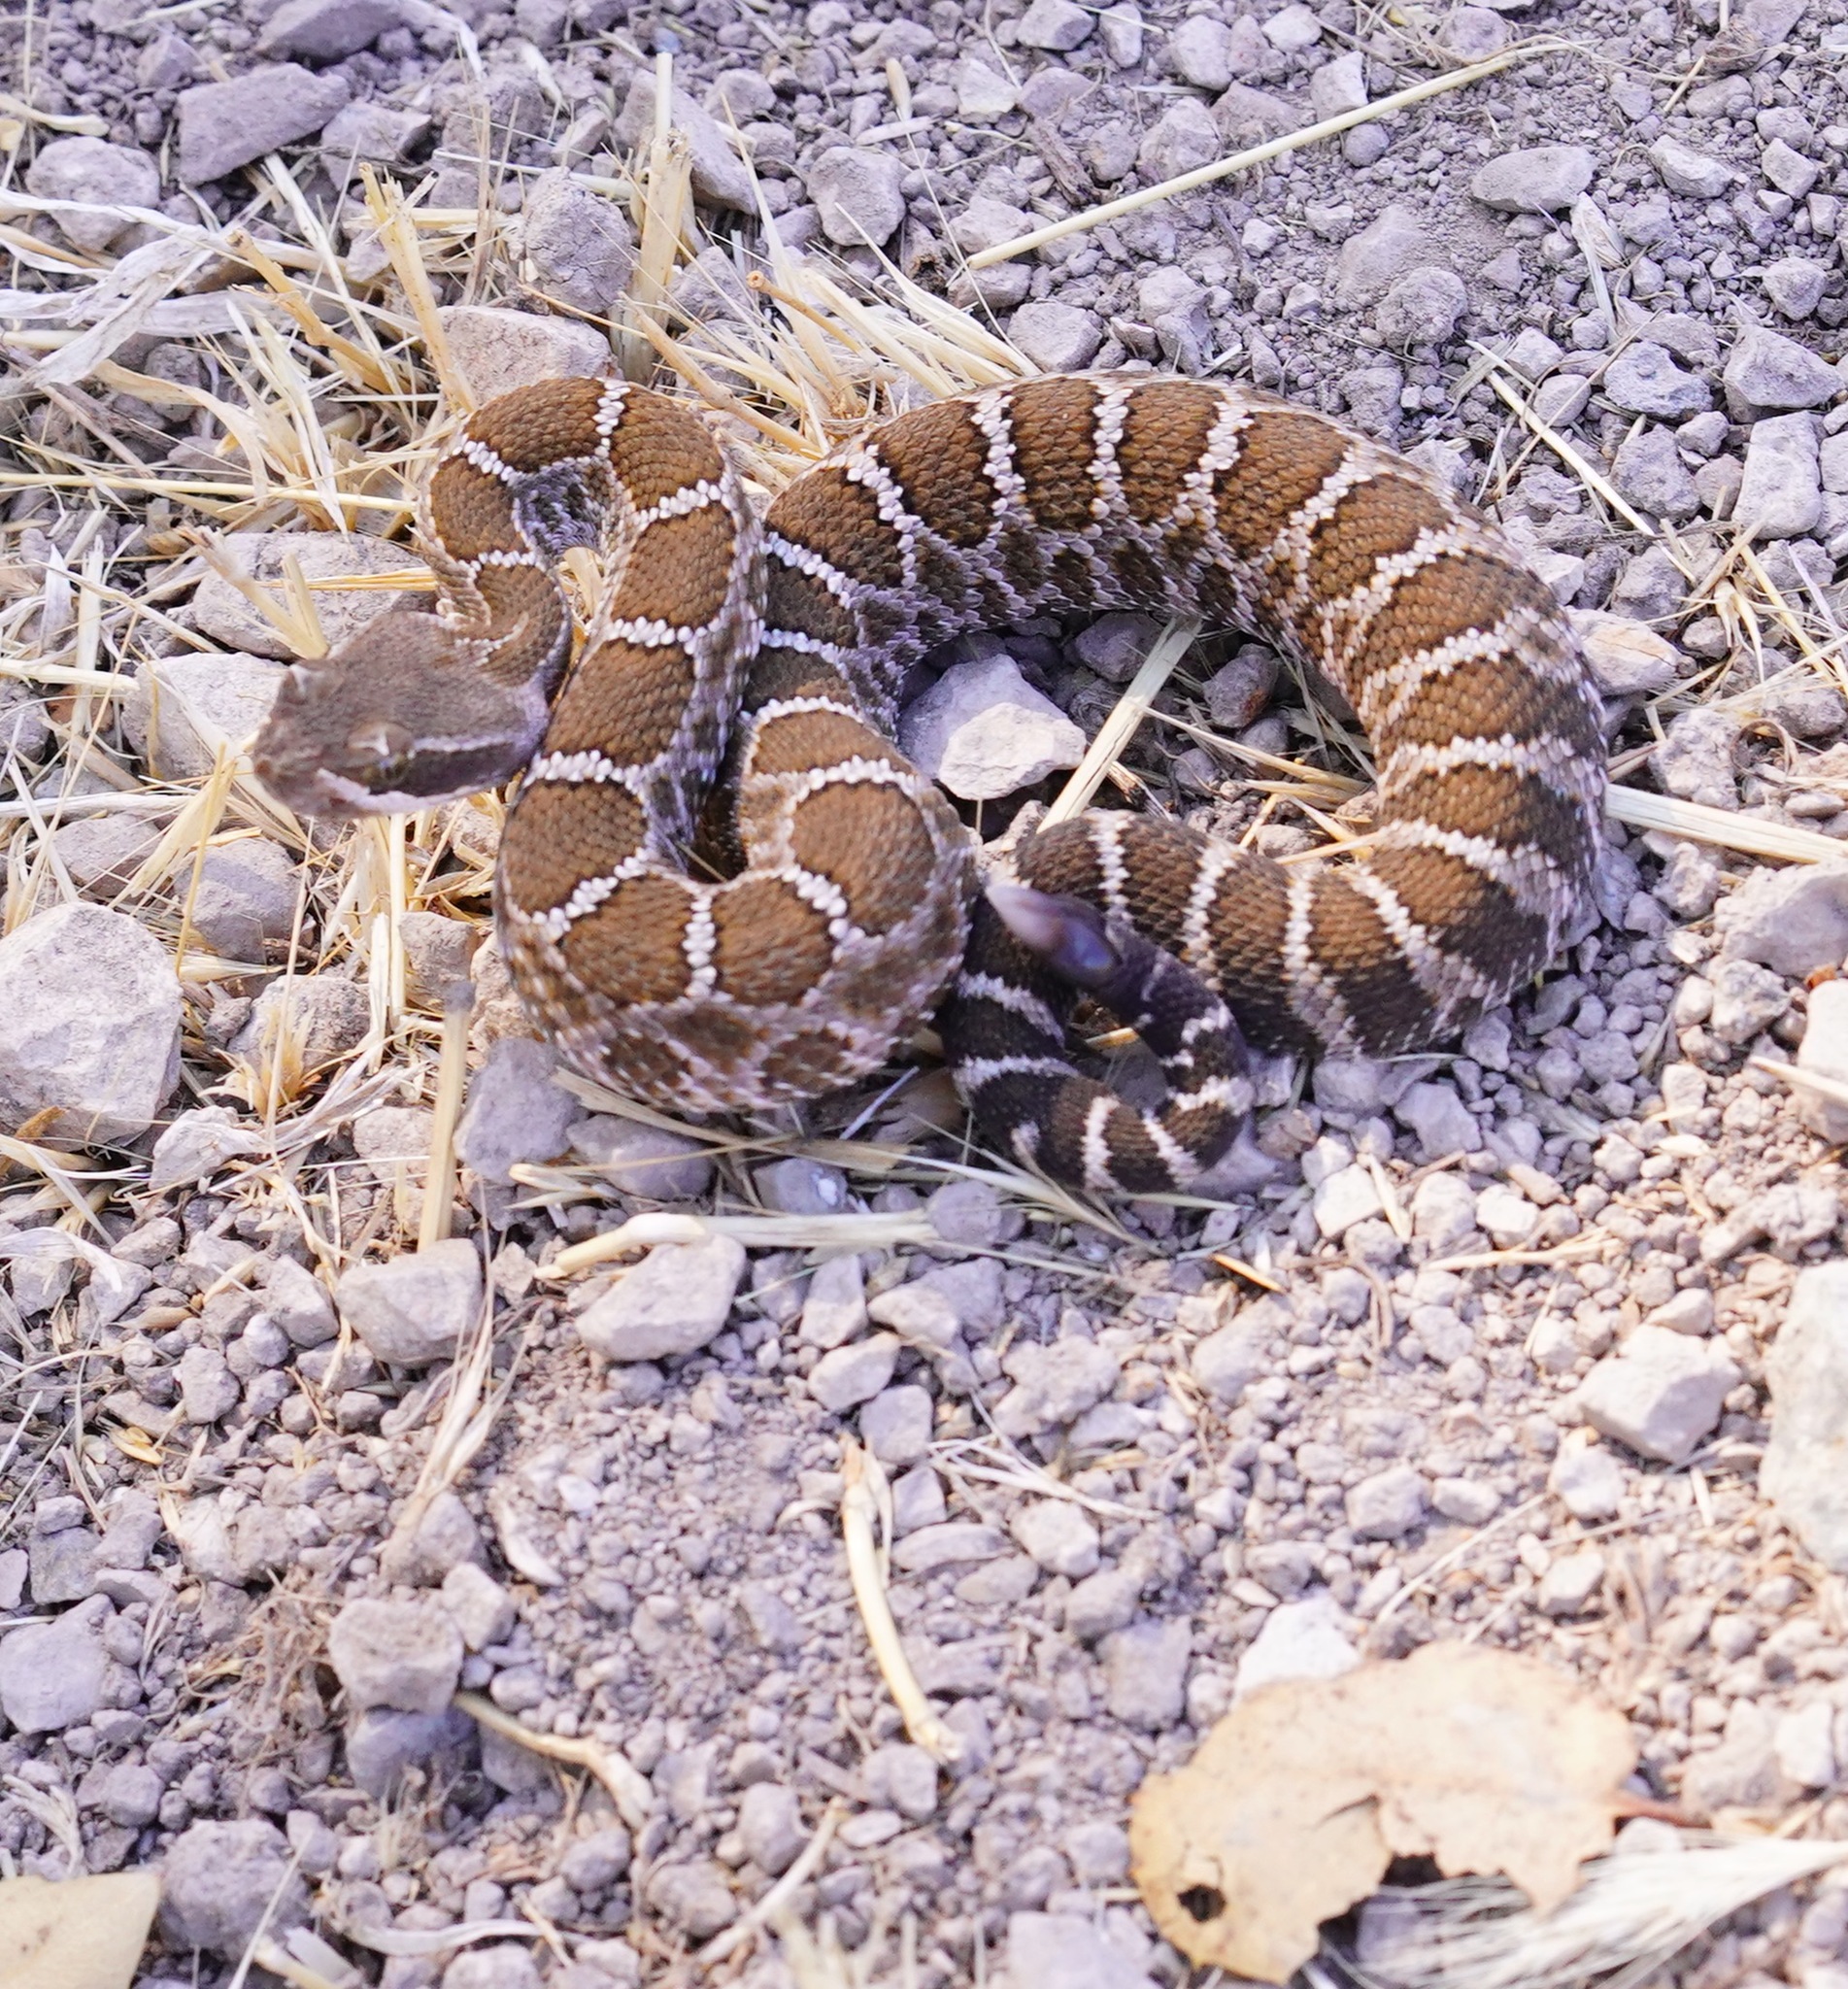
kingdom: Animalia
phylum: Chordata
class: Squamata
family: Viperidae
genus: Crotalus
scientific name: Crotalus oreganus
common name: Abyssus
